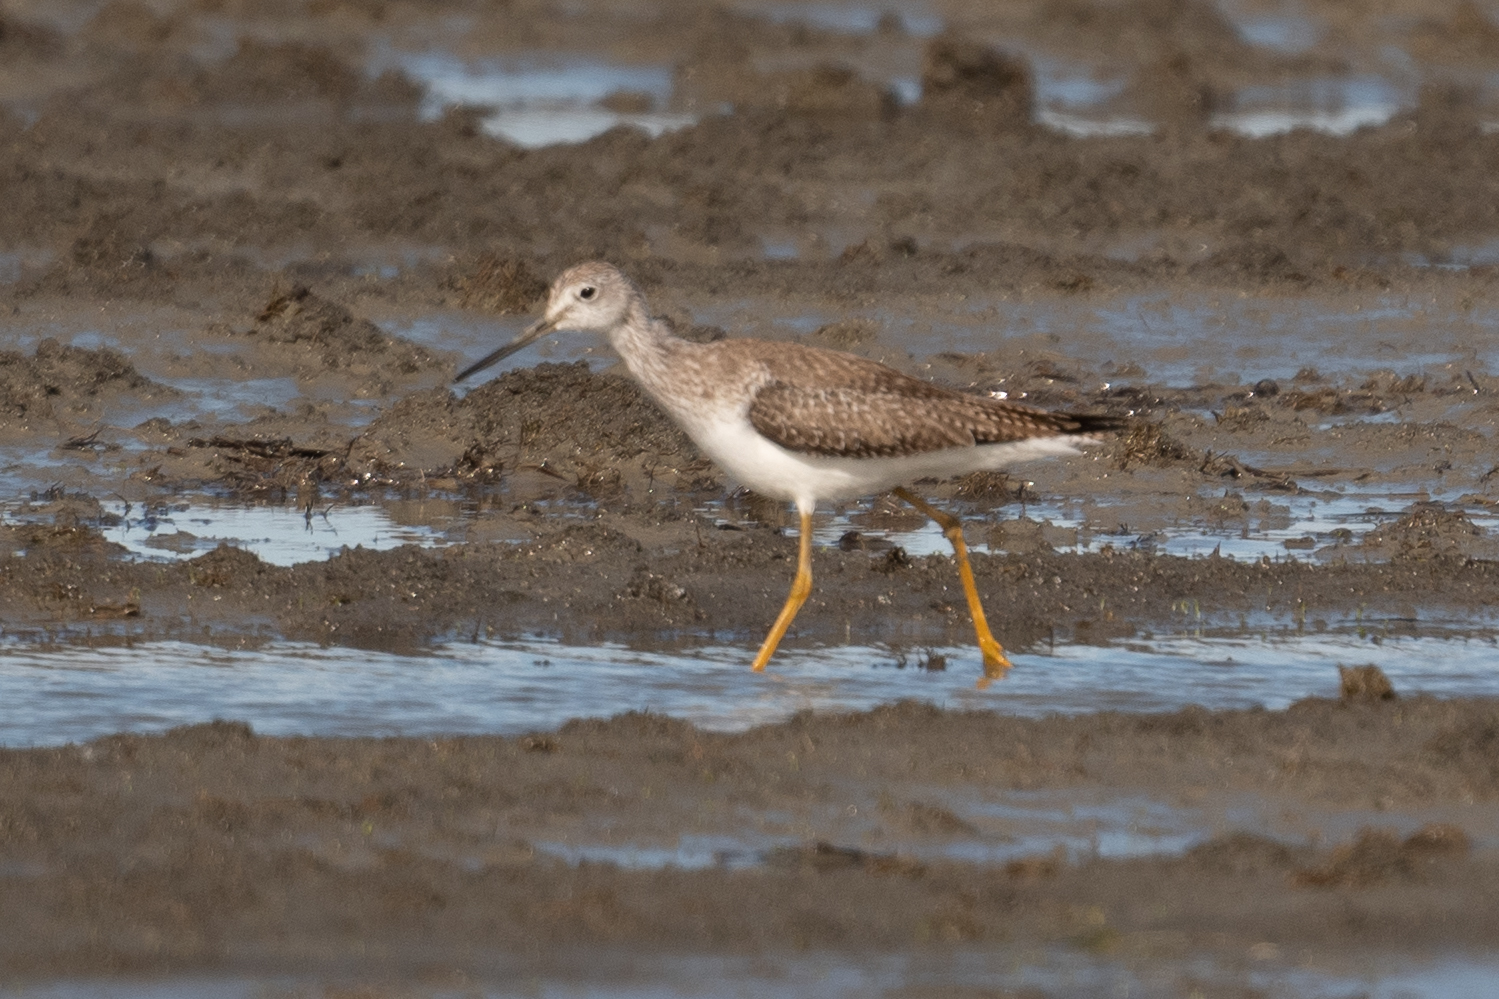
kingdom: Animalia
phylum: Chordata
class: Aves
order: Charadriiformes
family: Scolopacidae
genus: Tringa
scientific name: Tringa melanoleuca
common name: Greater yellowlegs
